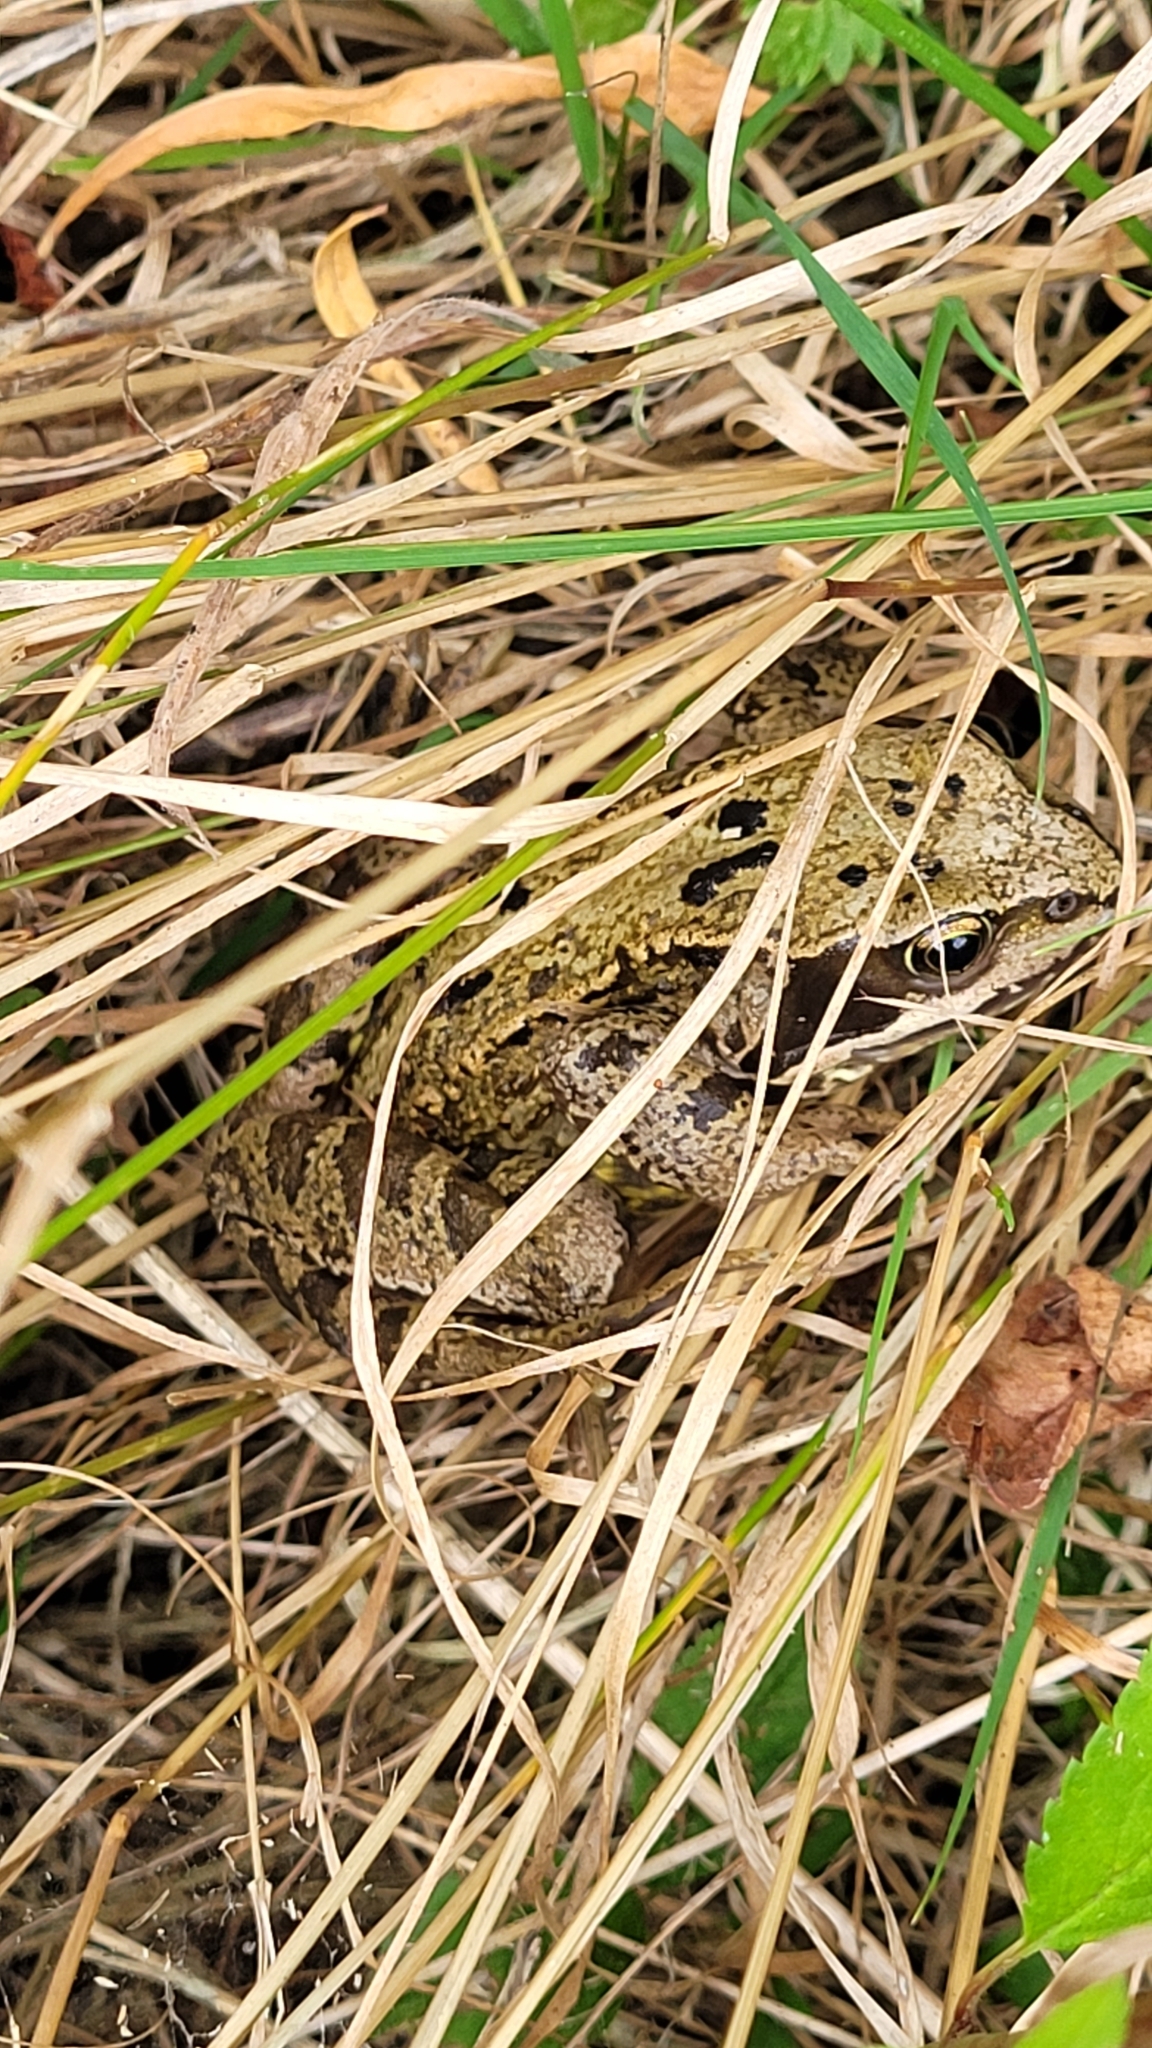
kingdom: Animalia
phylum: Chordata
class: Amphibia
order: Anura
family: Ranidae
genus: Rana
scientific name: Rana temporaria
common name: Common frog
